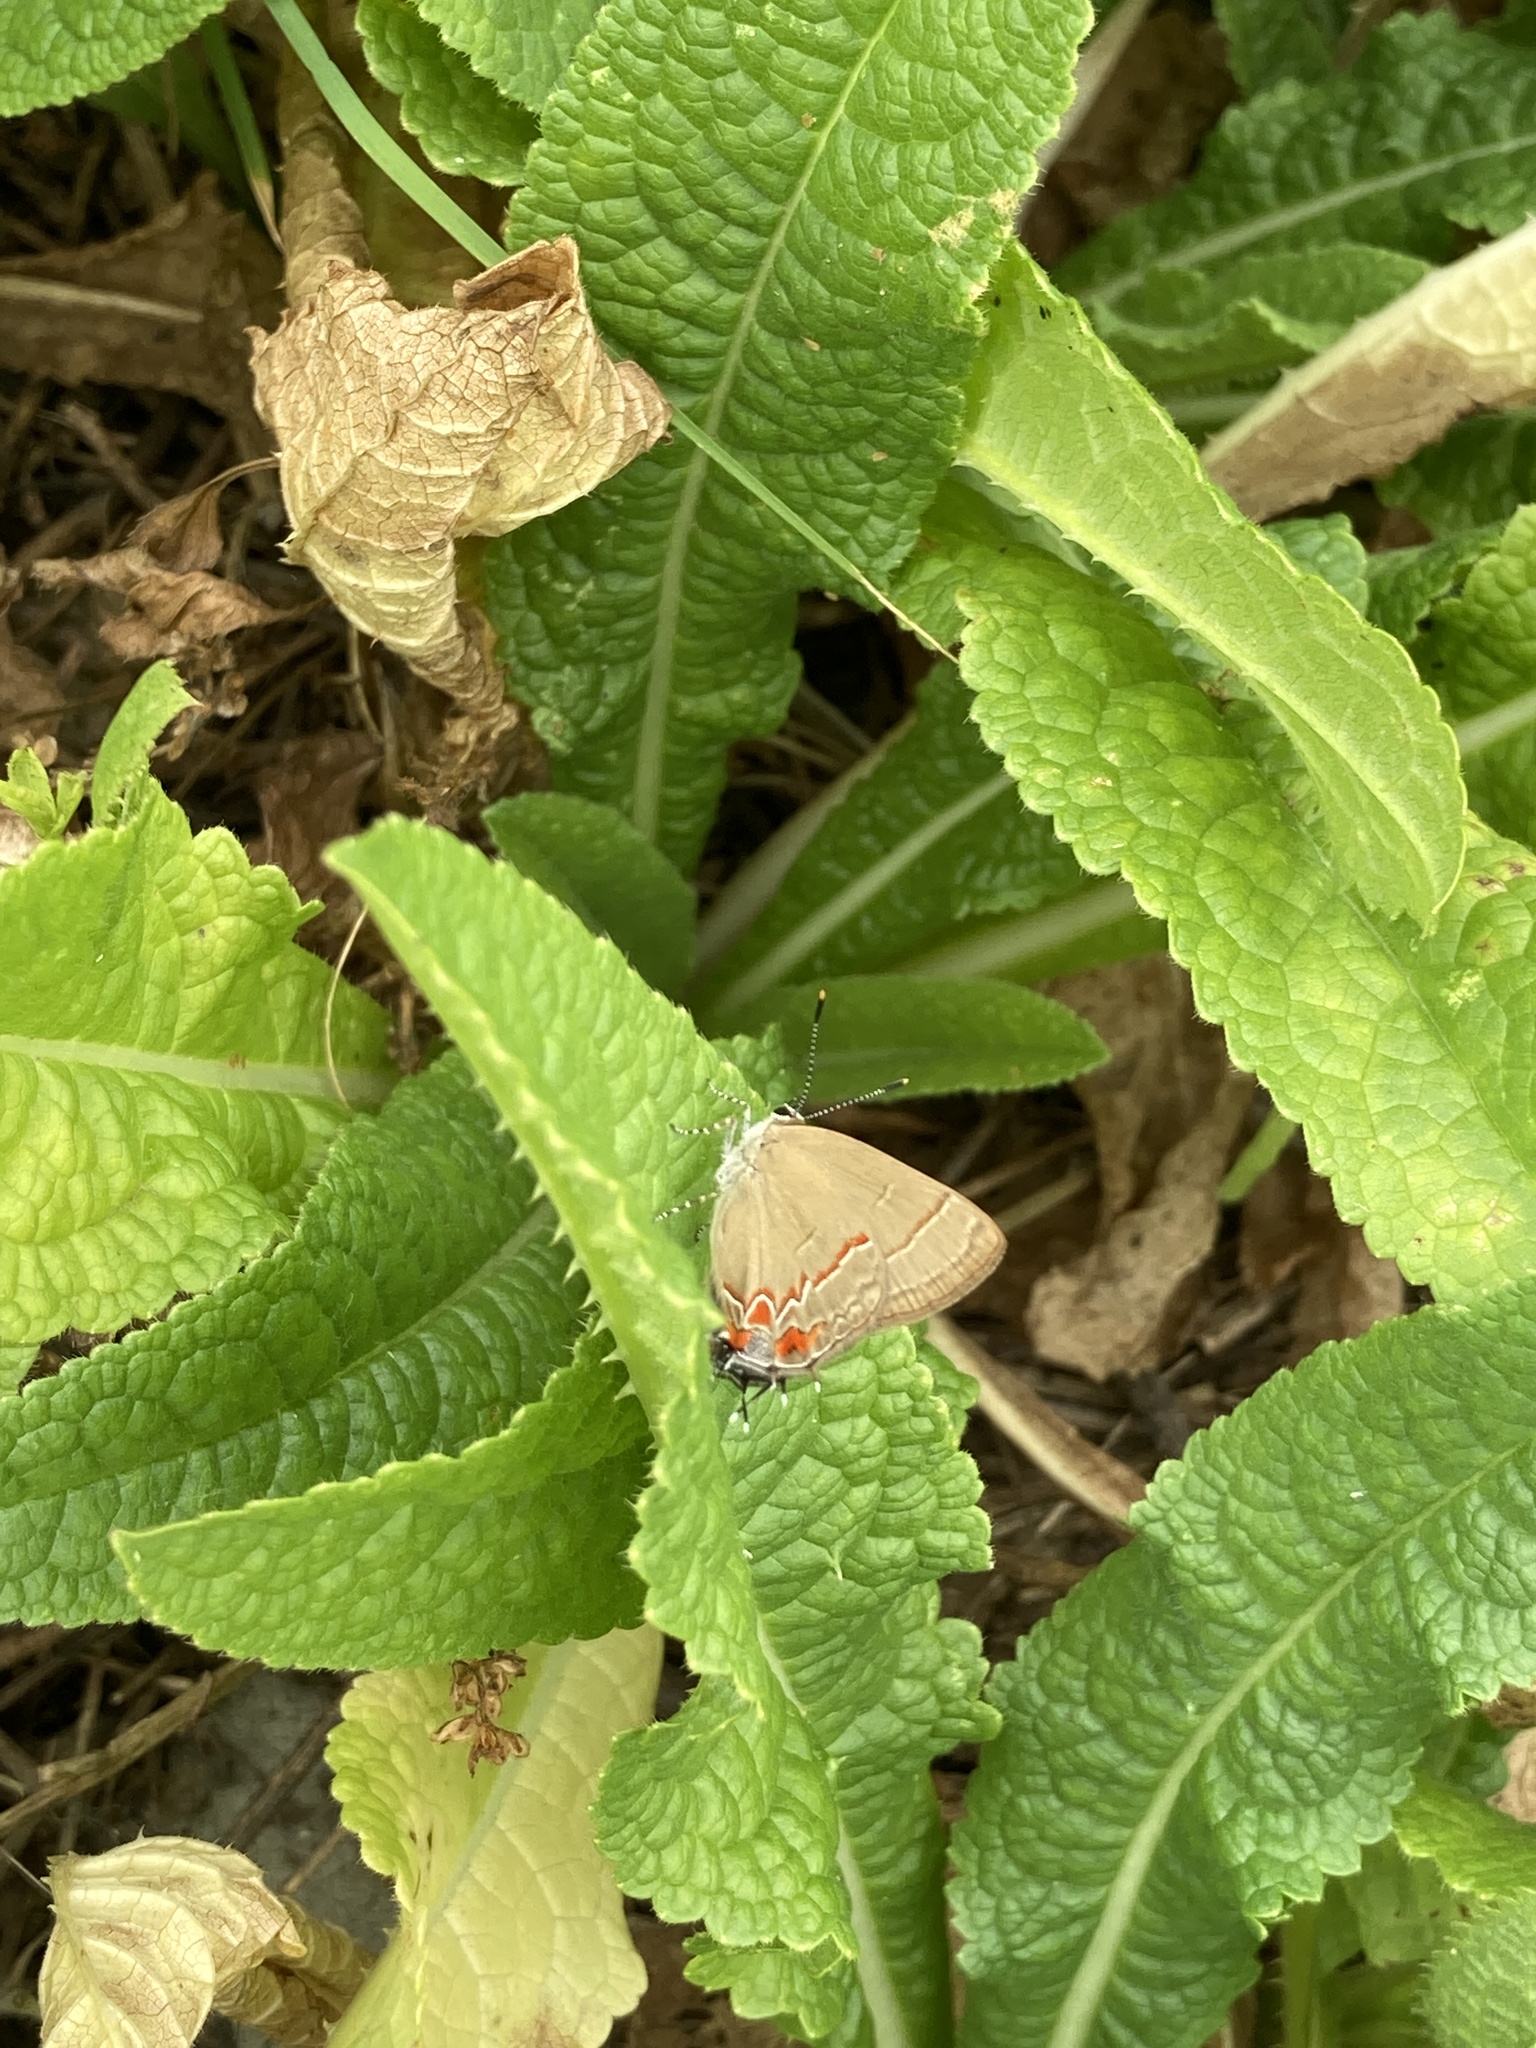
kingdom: Animalia
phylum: Arthropoda
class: Insecta
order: Lepidoptera
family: Lycaenidae
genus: Calycopis
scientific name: Calycopis caulonia
